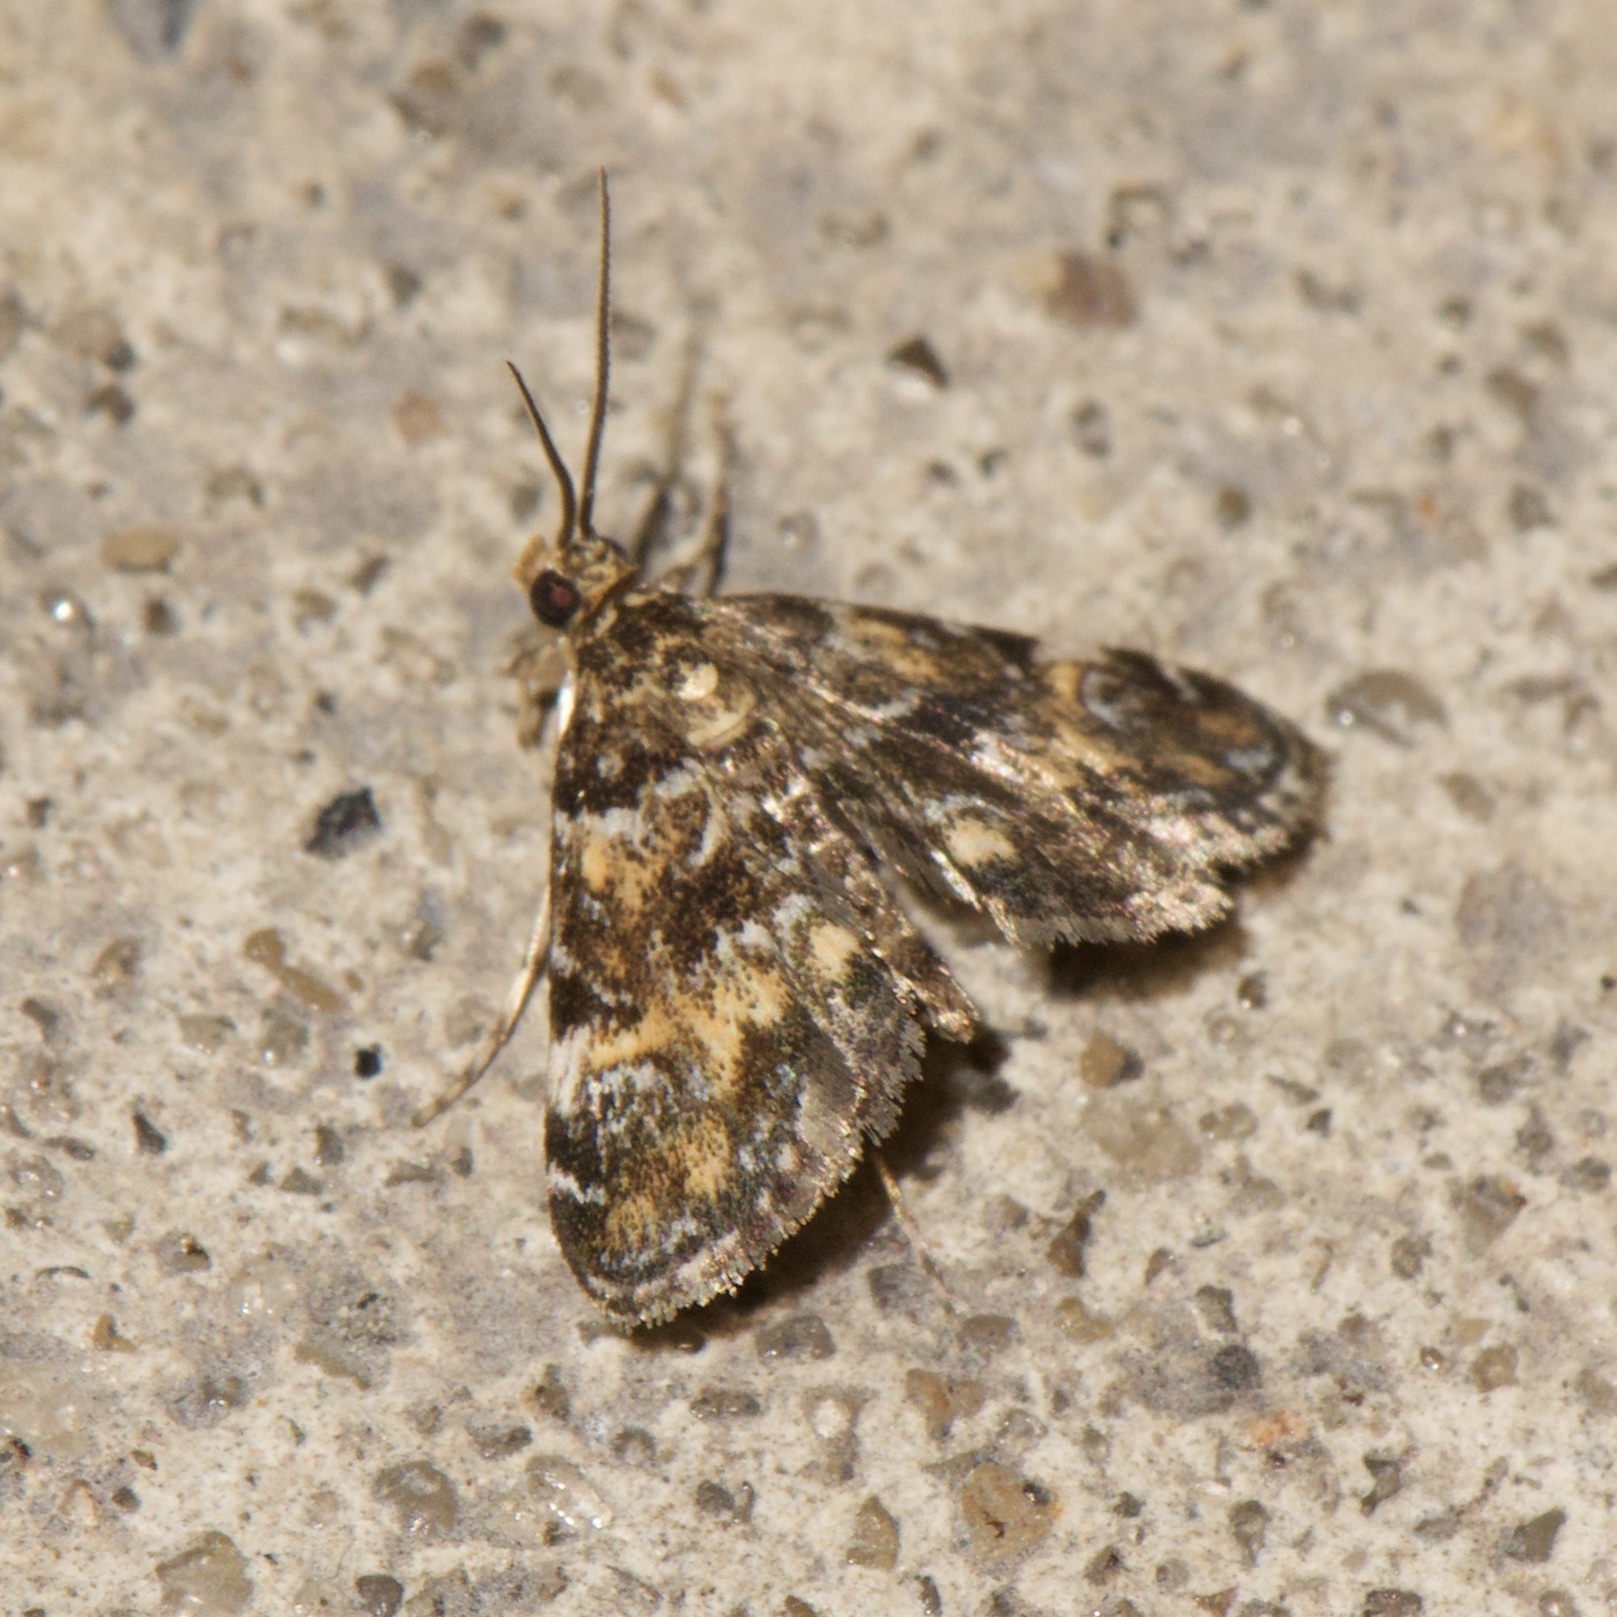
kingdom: Animalia
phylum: Arthropoda
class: Insecta
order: Lepidoptera
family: Crambidae
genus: Elophila
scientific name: Elophila obliteralis
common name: Waterlily leafcutter moth
